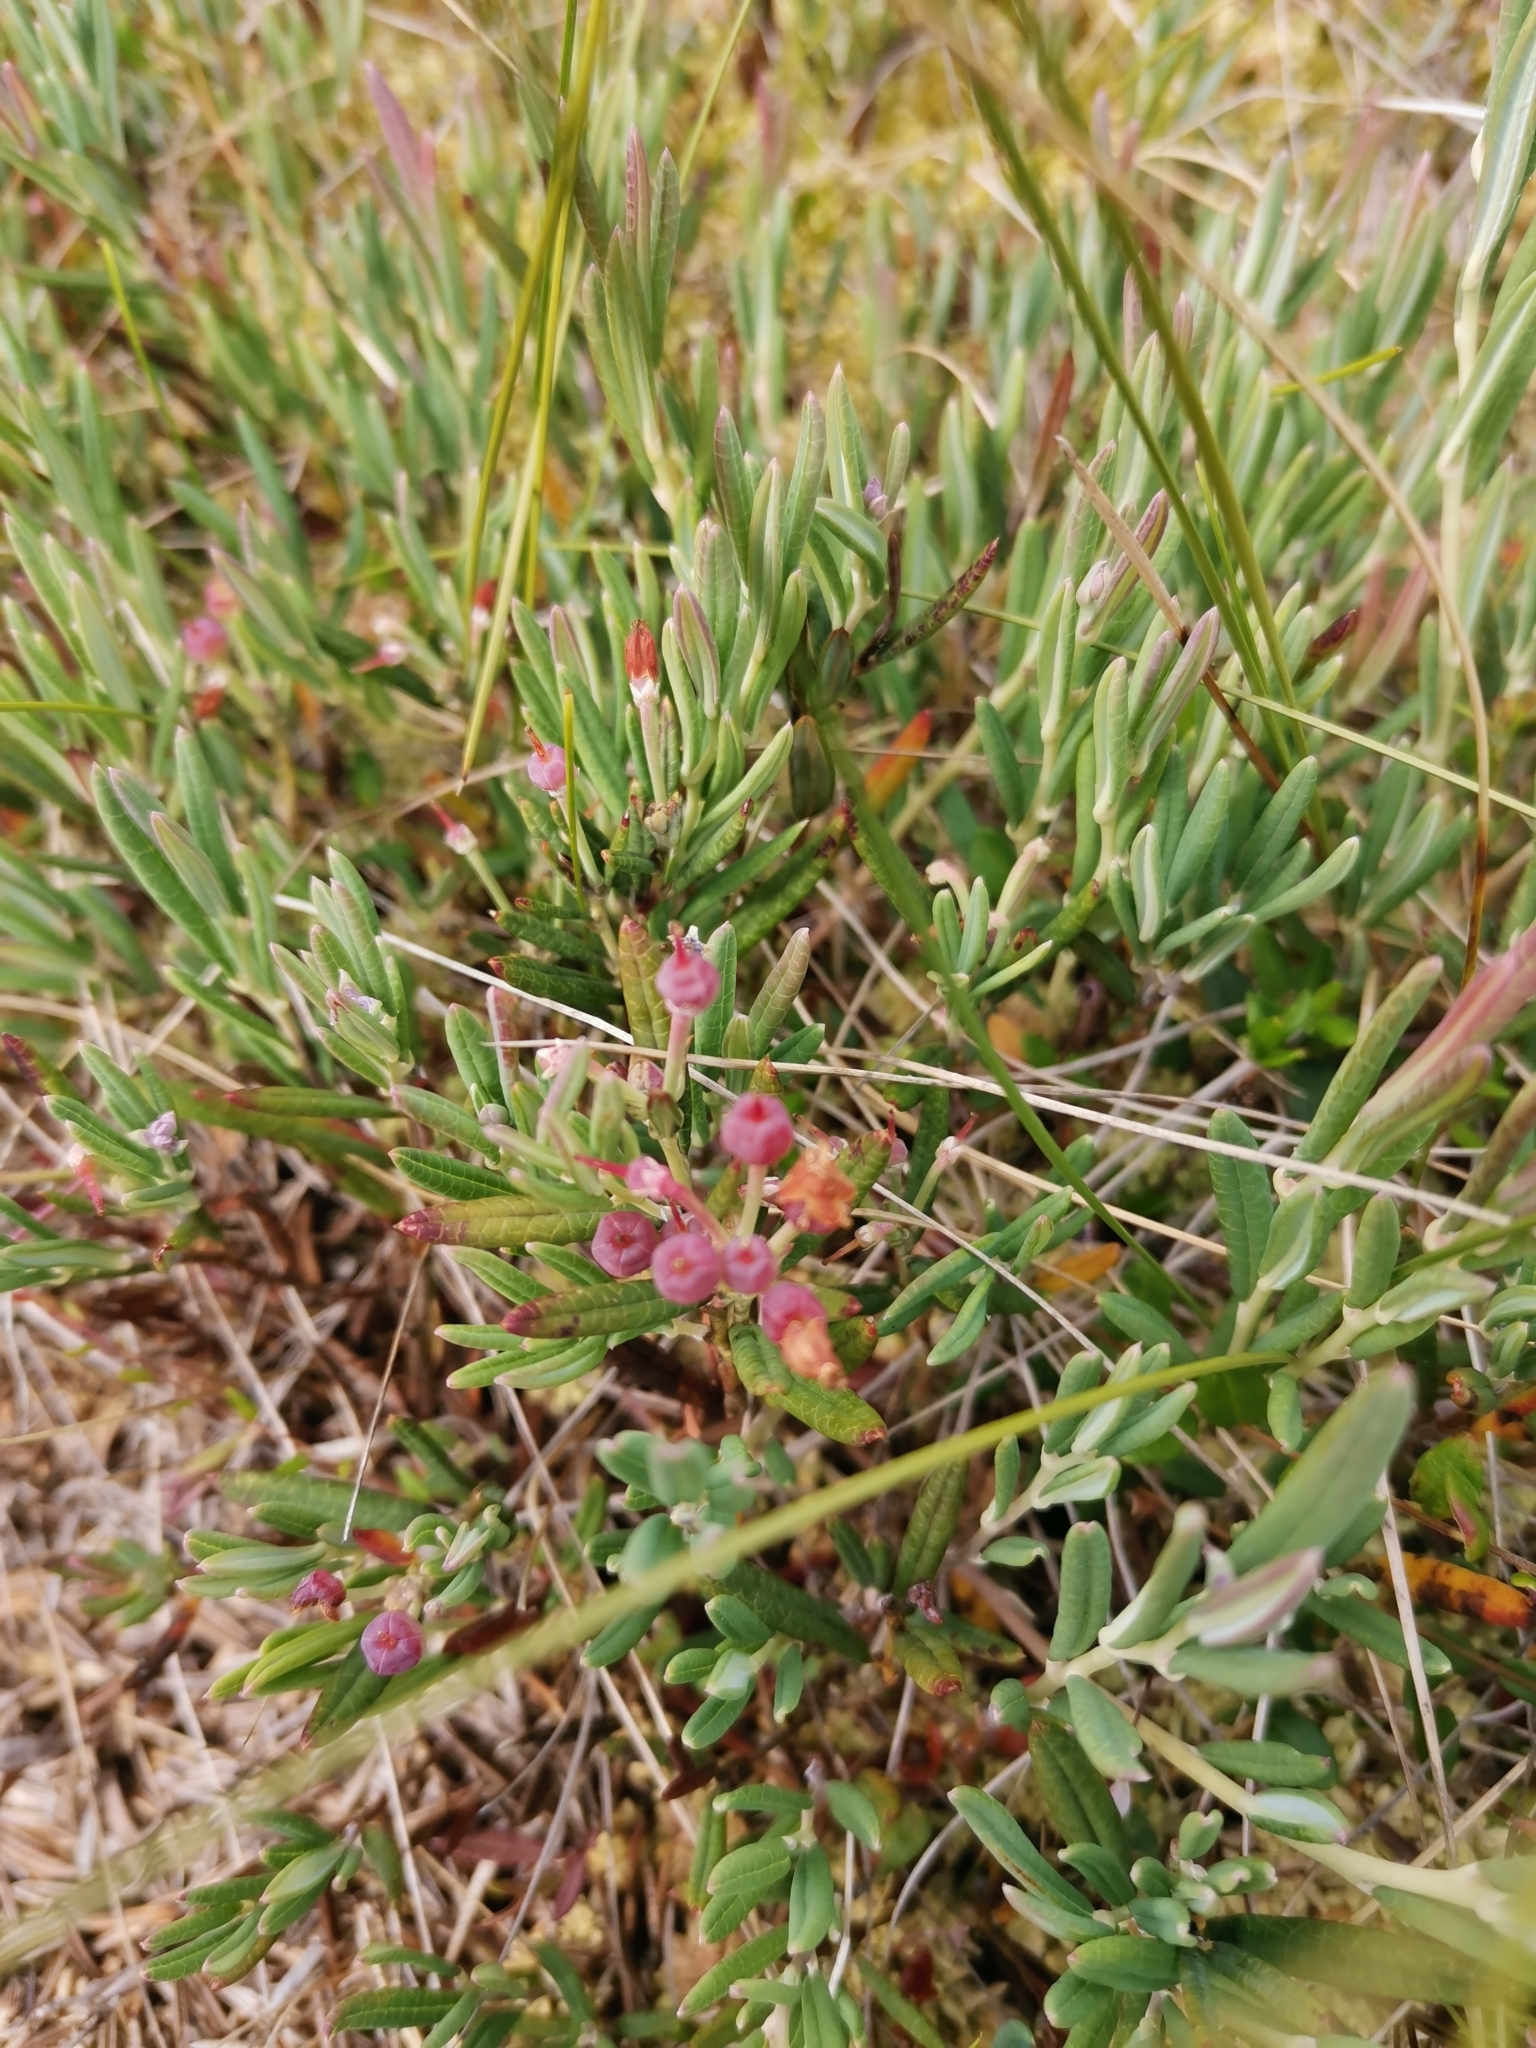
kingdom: Plantae
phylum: Tracheophyta
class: Magnoliopsida
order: Ericales
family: Ericaceae
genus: Andromeda
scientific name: Andromeda polifolia
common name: Bog-rosemary
